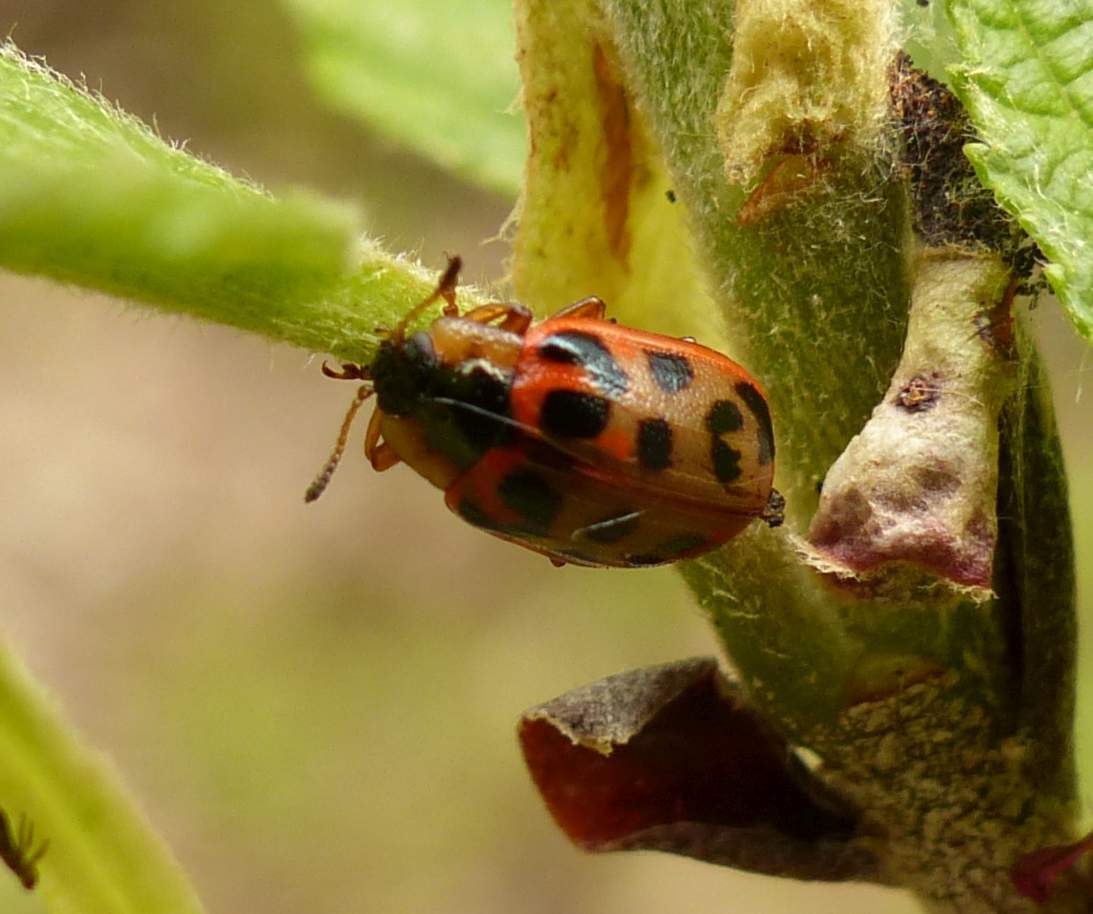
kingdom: Animalia
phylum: Arthropoda
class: Insecta
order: Coleoptera
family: Chrysomelidae
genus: Chrysomela
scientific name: Chrysomela mainensis
